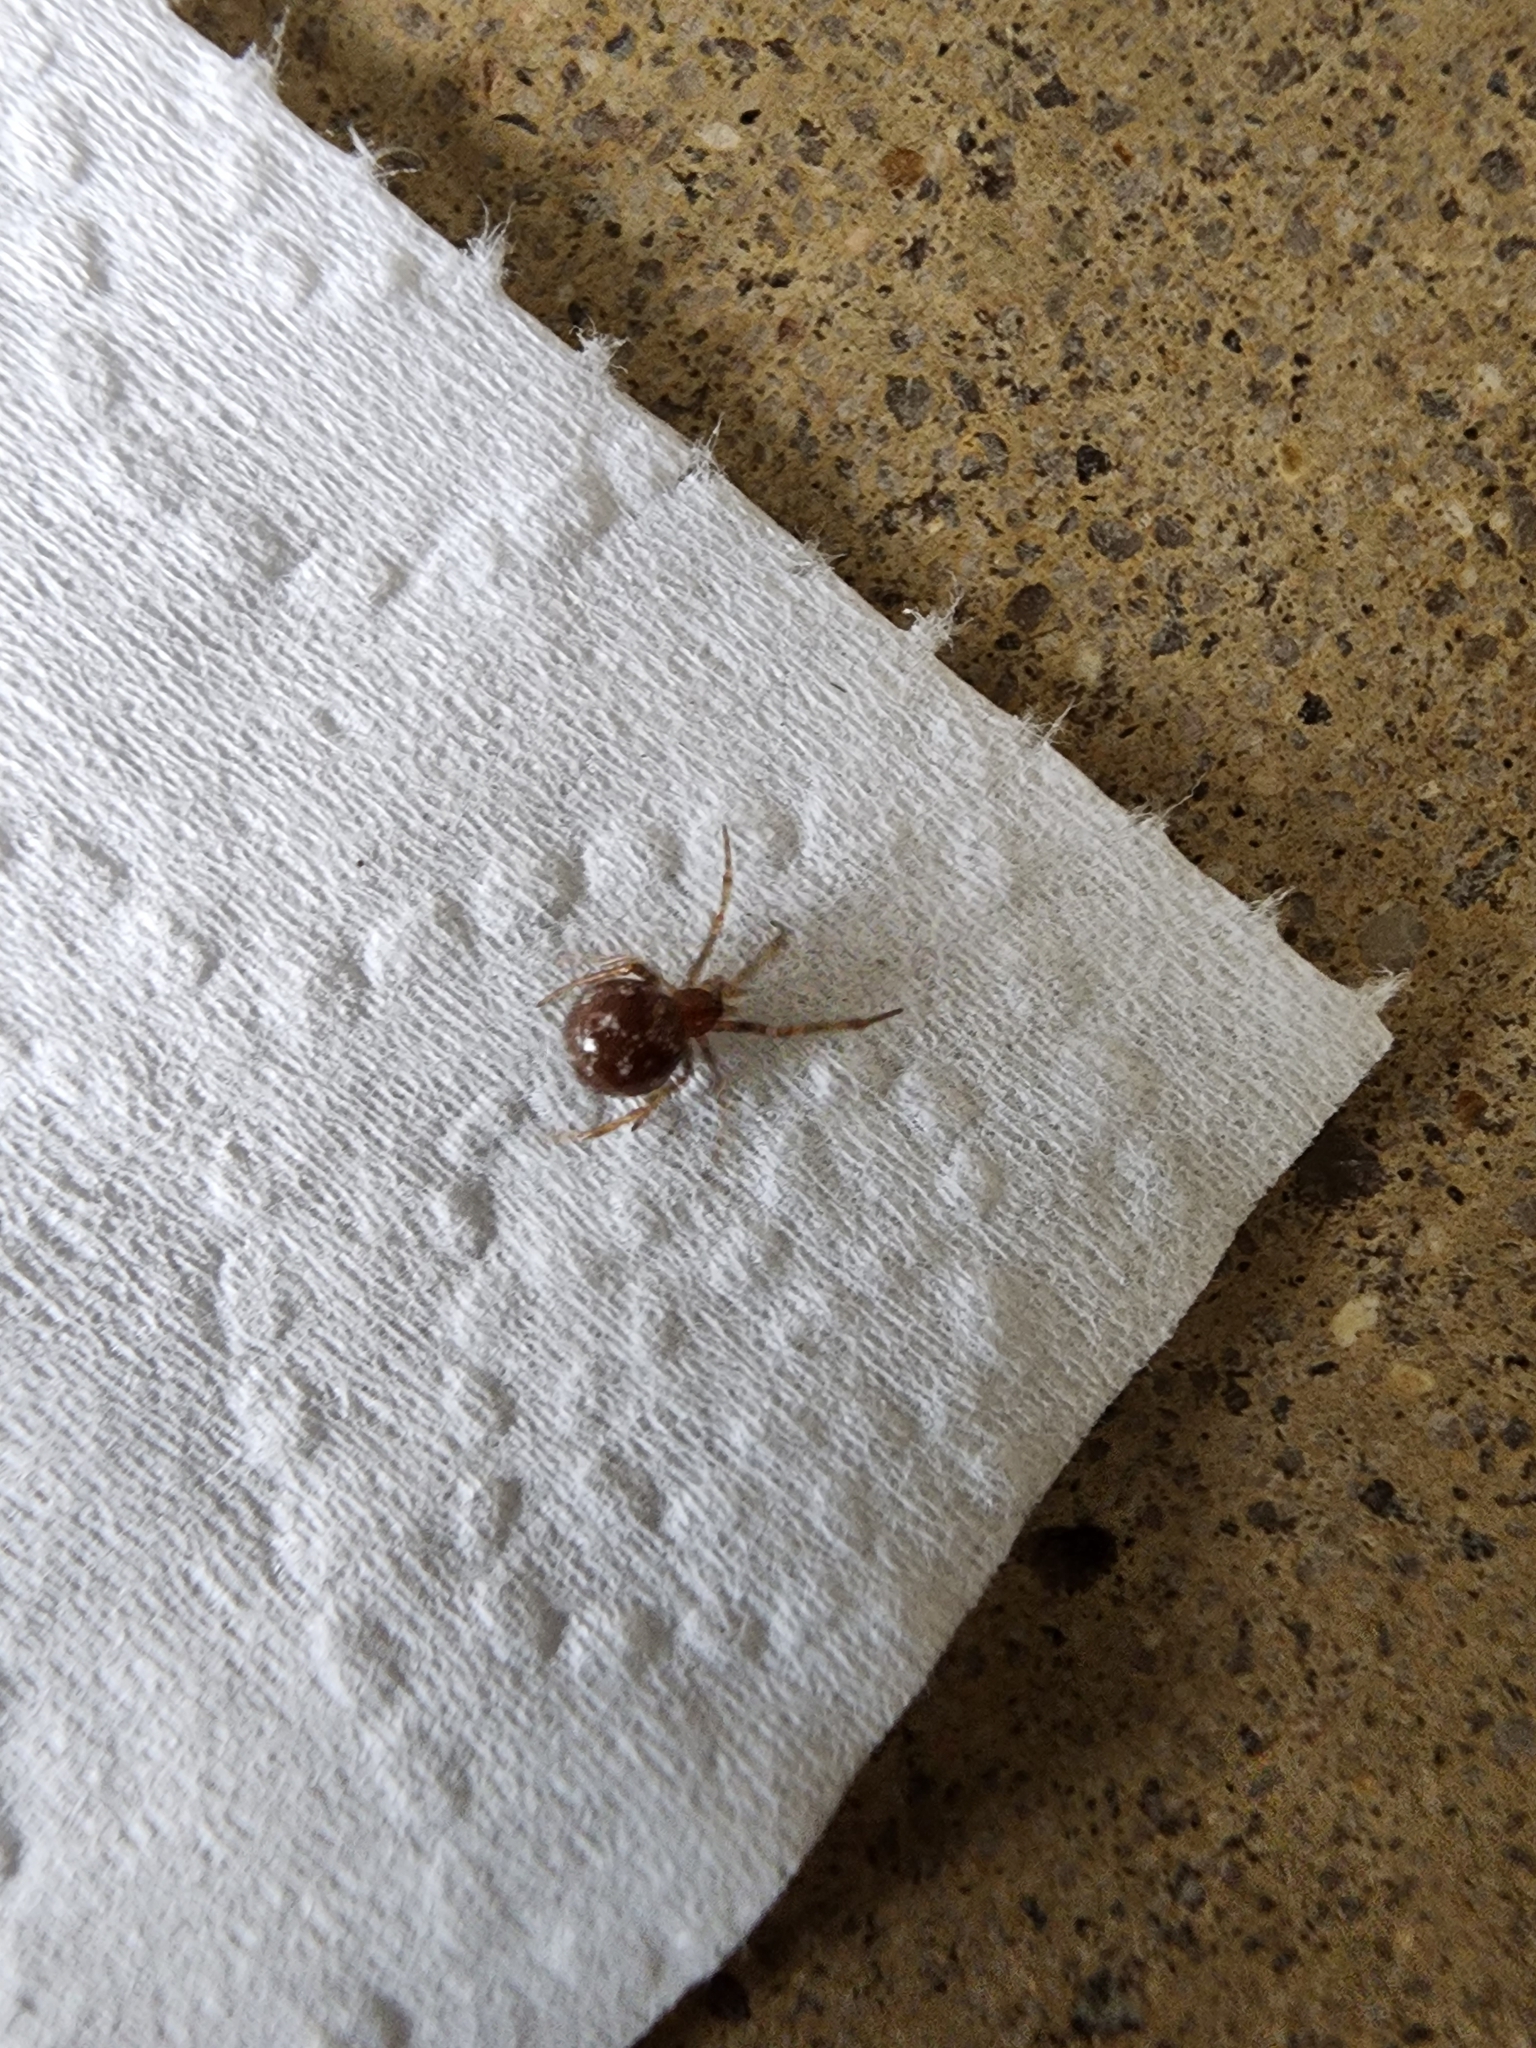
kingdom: Animalia
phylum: Arthropoda
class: Arachnida
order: Araneae
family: Theridiidae
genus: Steatoda
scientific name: Steatoda triangulosa
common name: Triangulate bud spider
